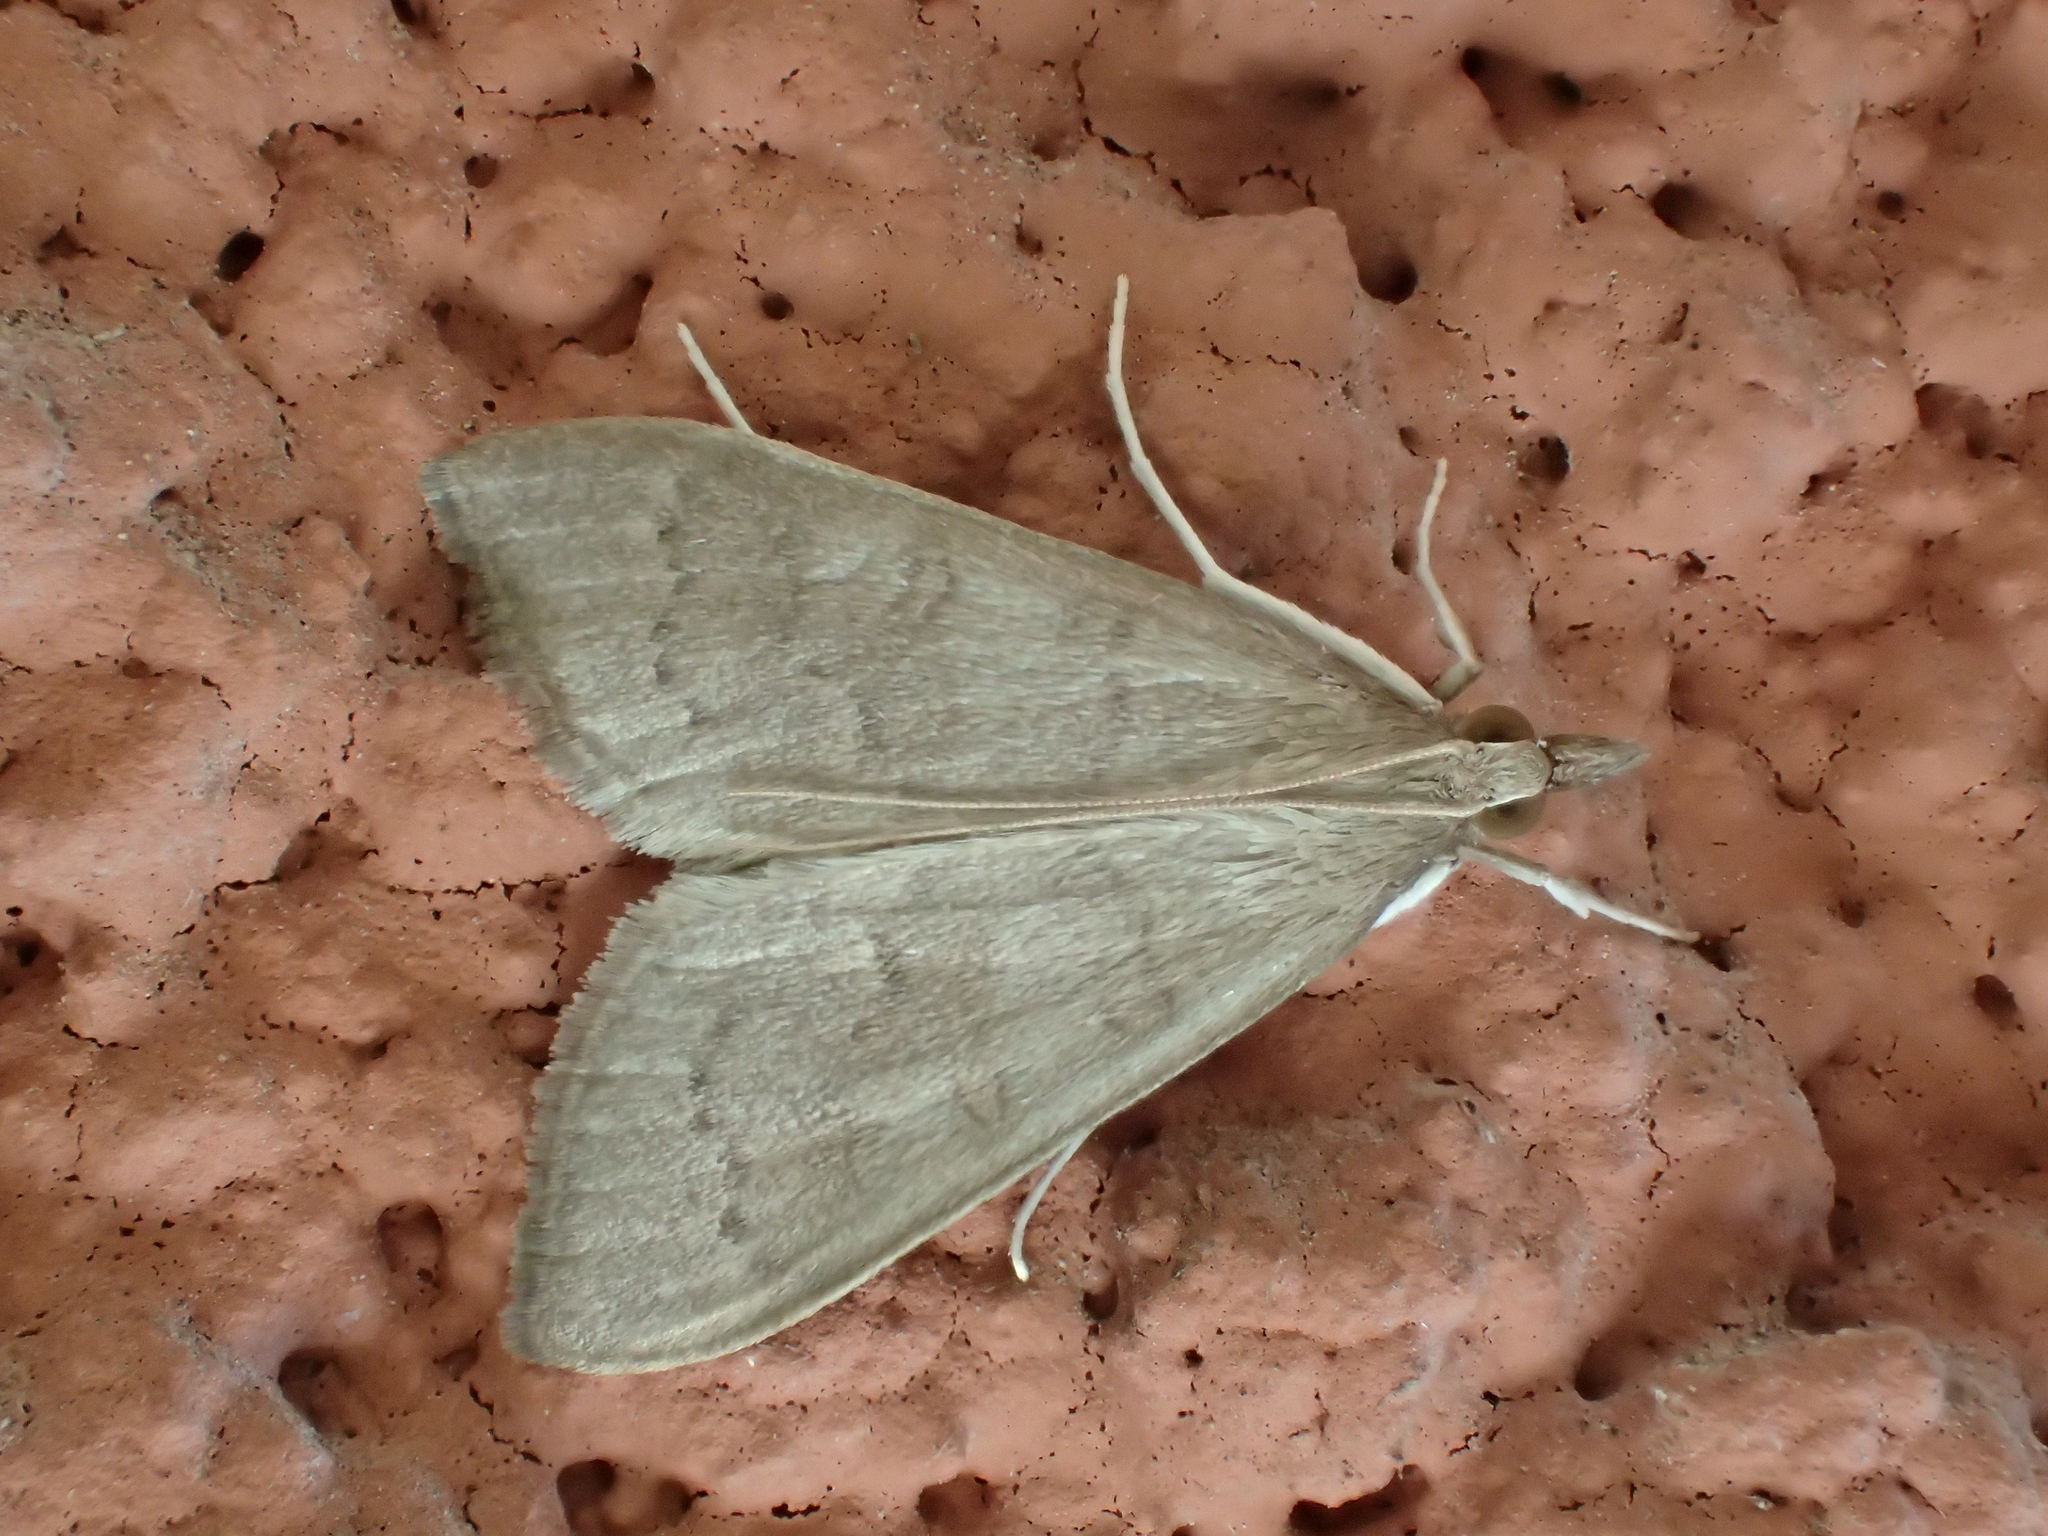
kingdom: Animalia
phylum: Arthropoda
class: Insecta
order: Lepidoptera
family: Crambidae
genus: Mecyna
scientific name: Mecyna asinalis
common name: Coastal pearl
